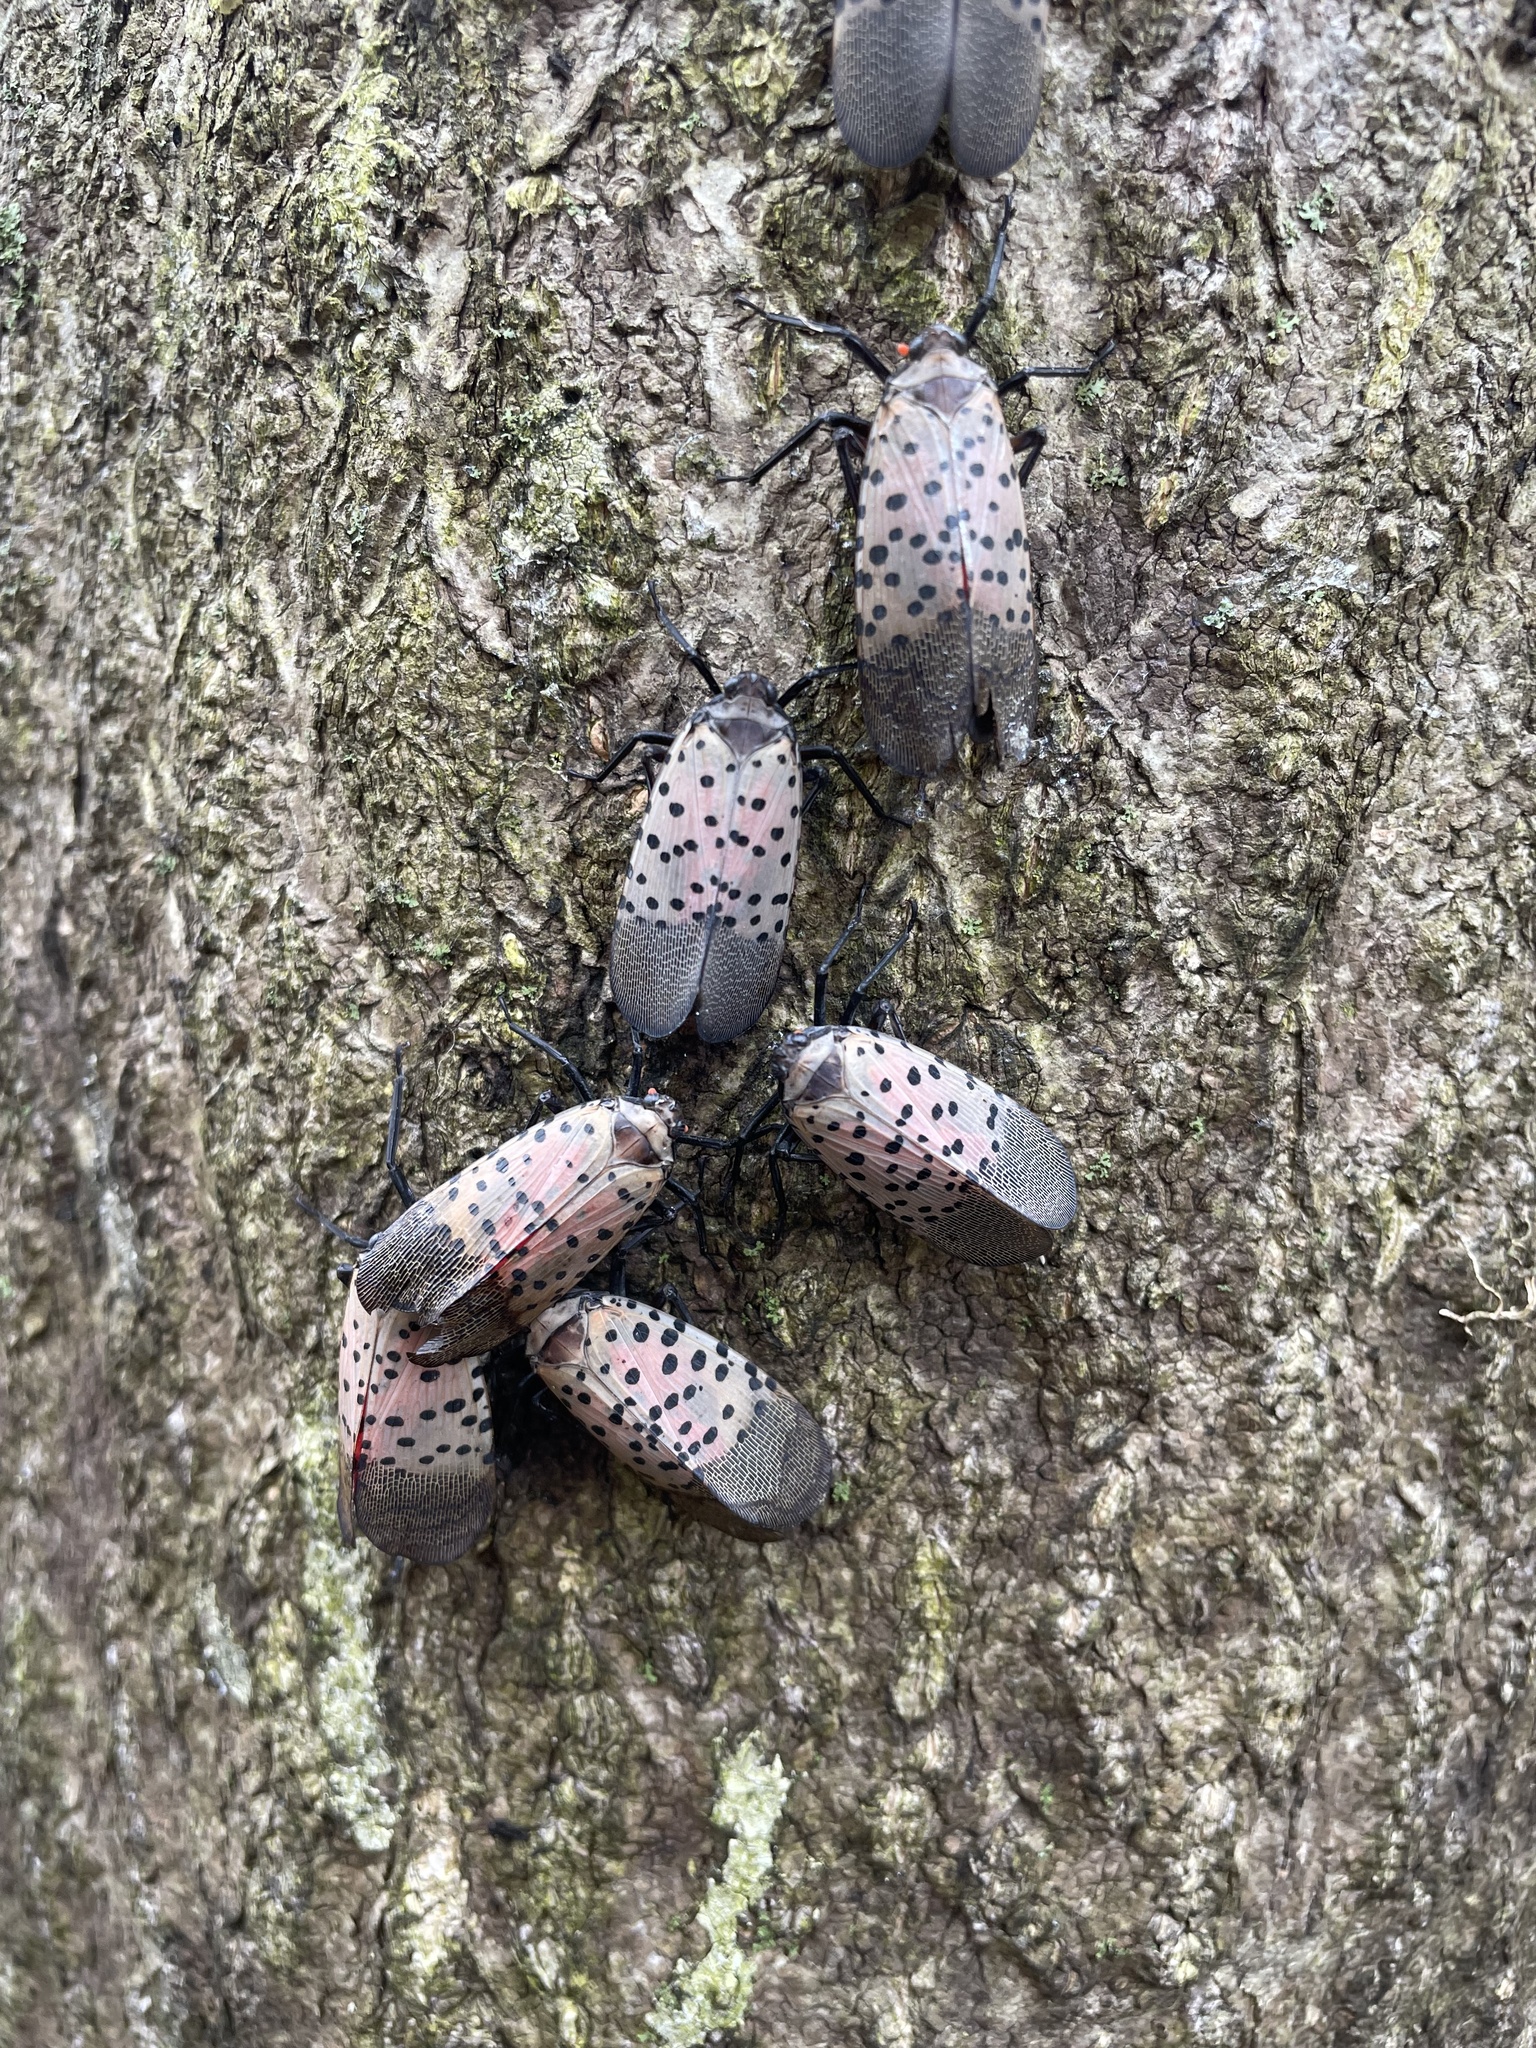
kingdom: Animalia
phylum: Arthropoda
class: Insecta
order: Hemiptera
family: Fulgoridae
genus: Lycorma
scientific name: Lycorma delicatula
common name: Spotted lanternfly
